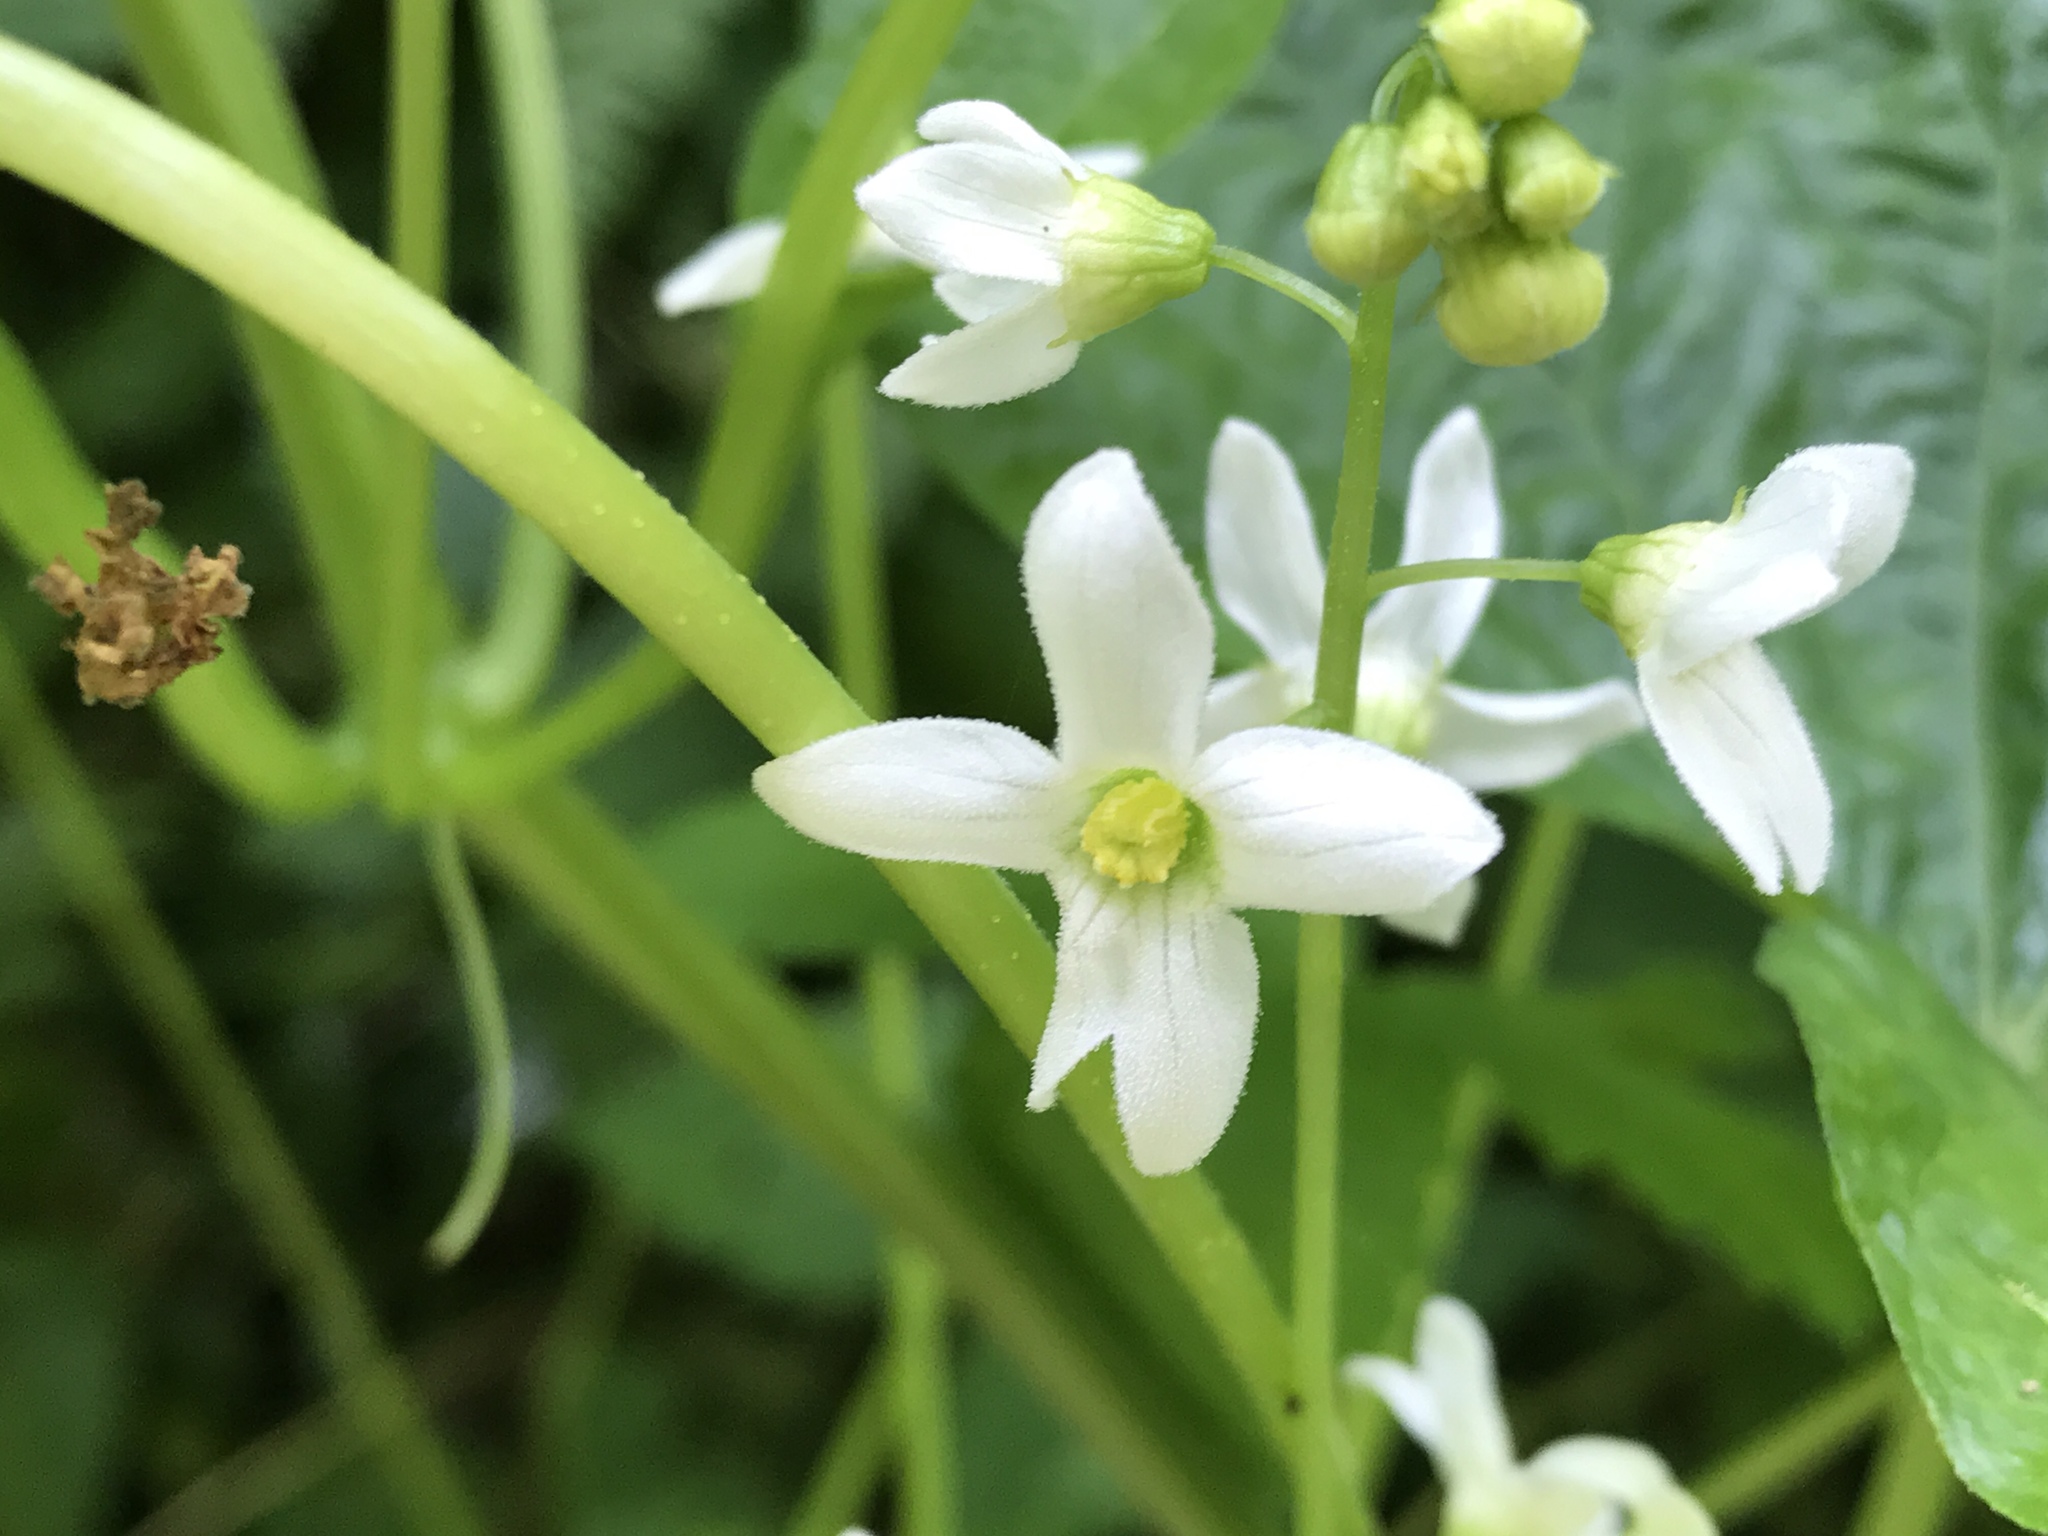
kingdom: Plantae
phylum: Tracheophyta
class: Magnoliopsida
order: Cucurbitales
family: Cucurbitaceae
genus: Marah
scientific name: Marah oregana
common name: Coastal manroot
